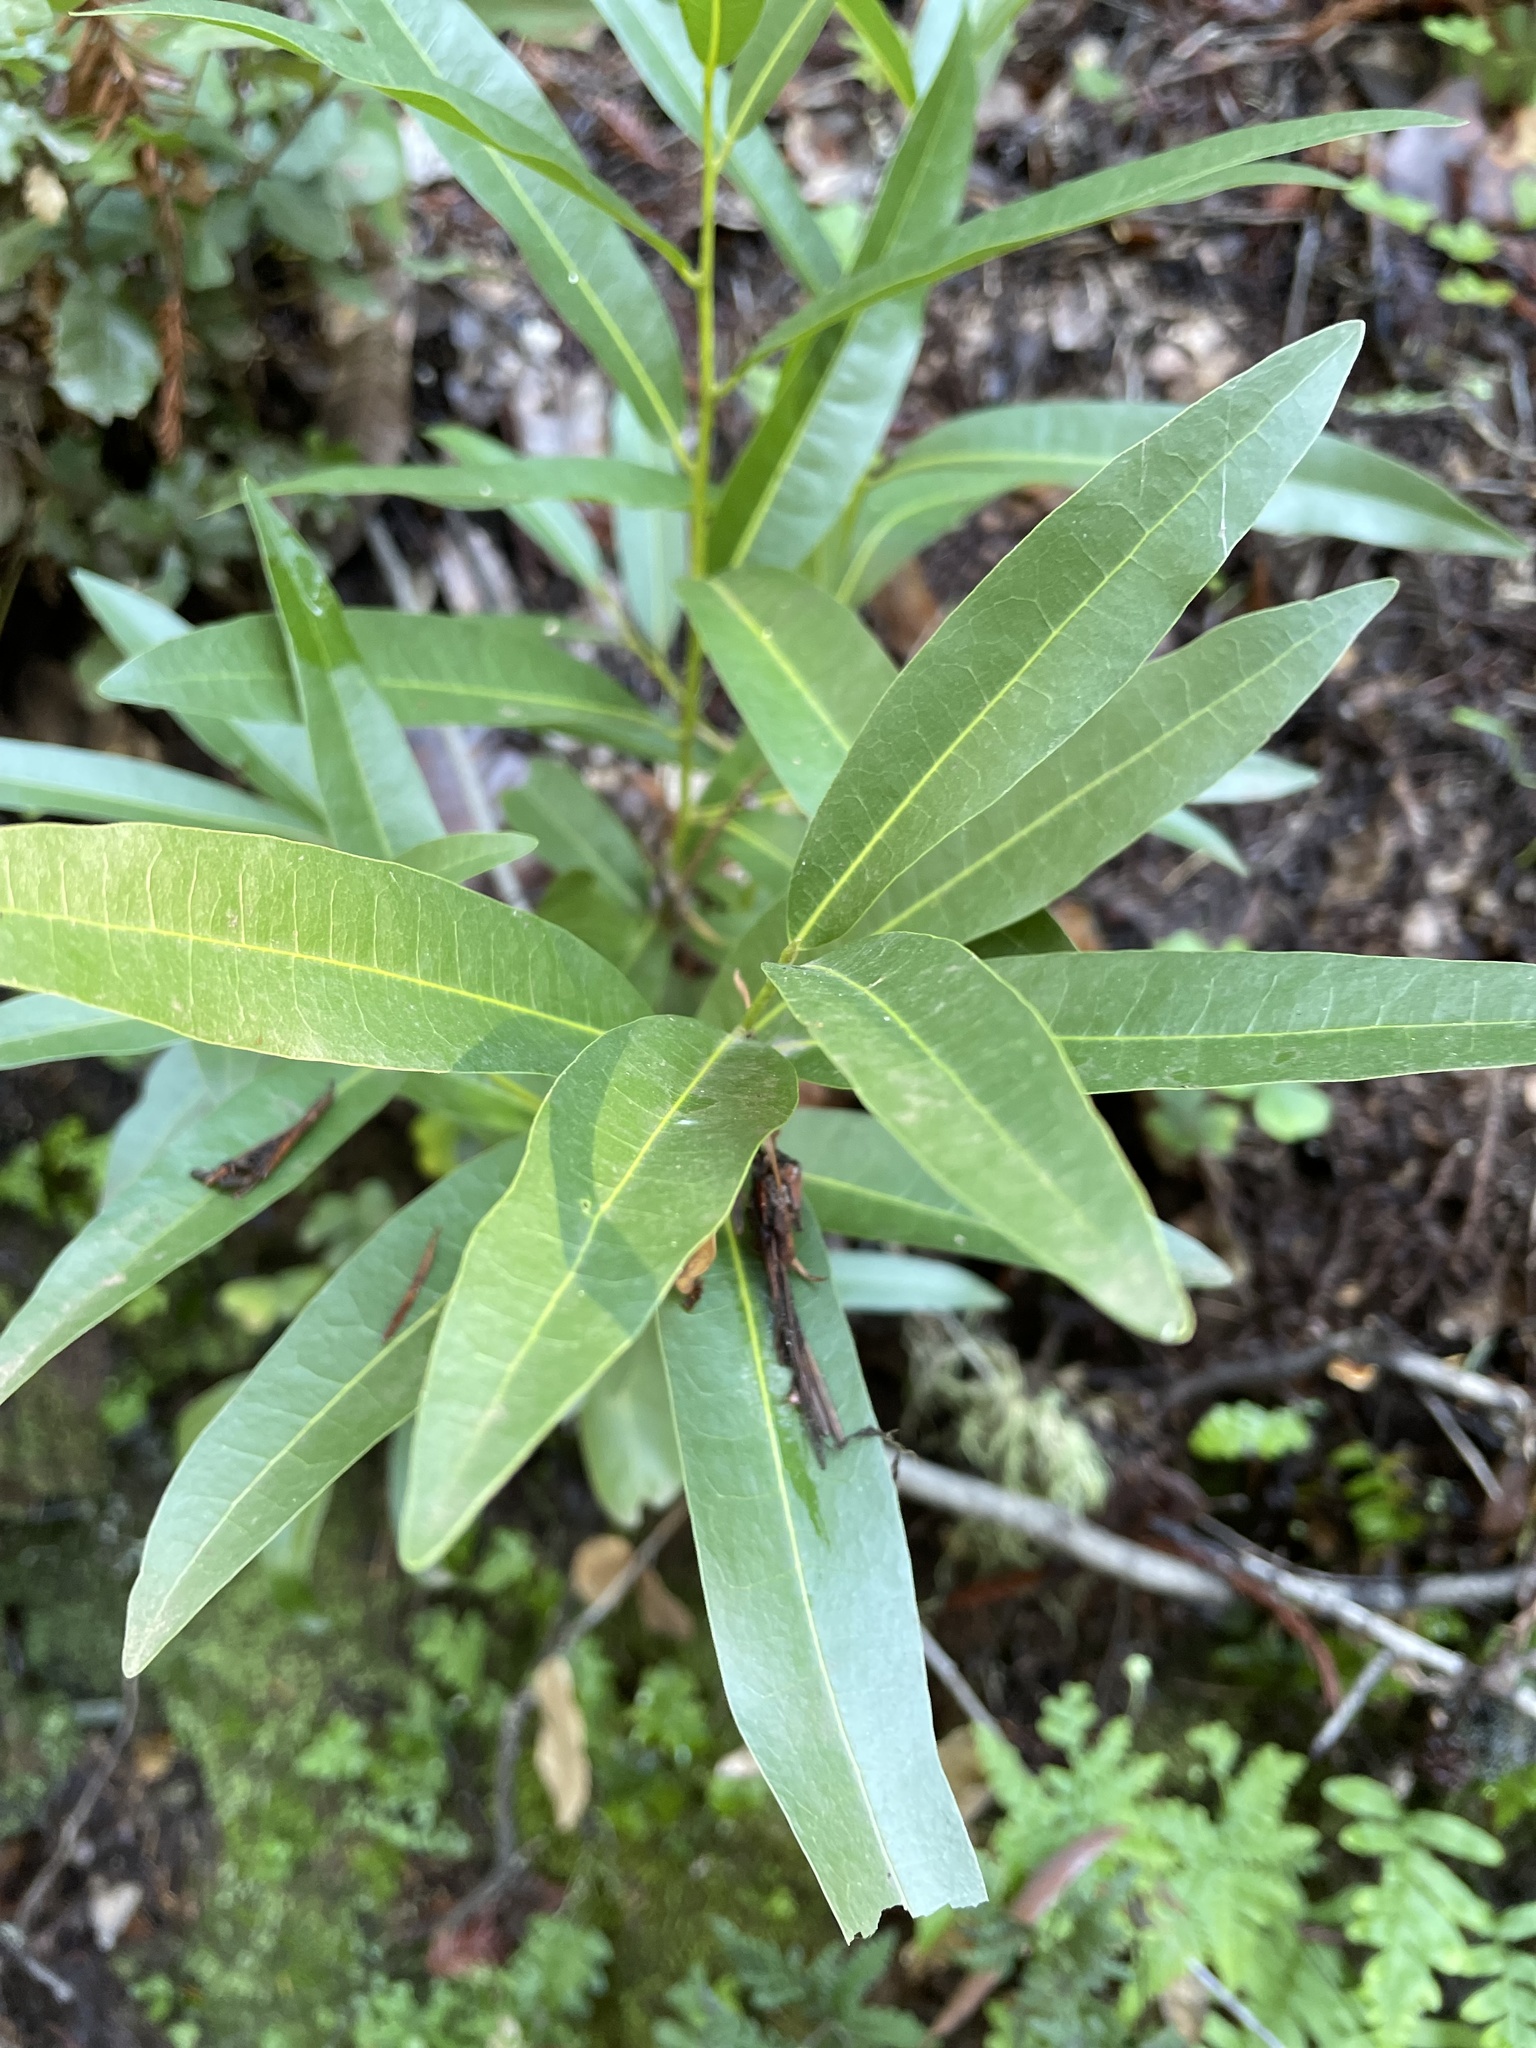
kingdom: Plantae
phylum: Tracheophyta
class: Magnoliopsida
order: Laurales
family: Lauraceae
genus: Umbellularia
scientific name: Umbellularia californica
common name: California bay
